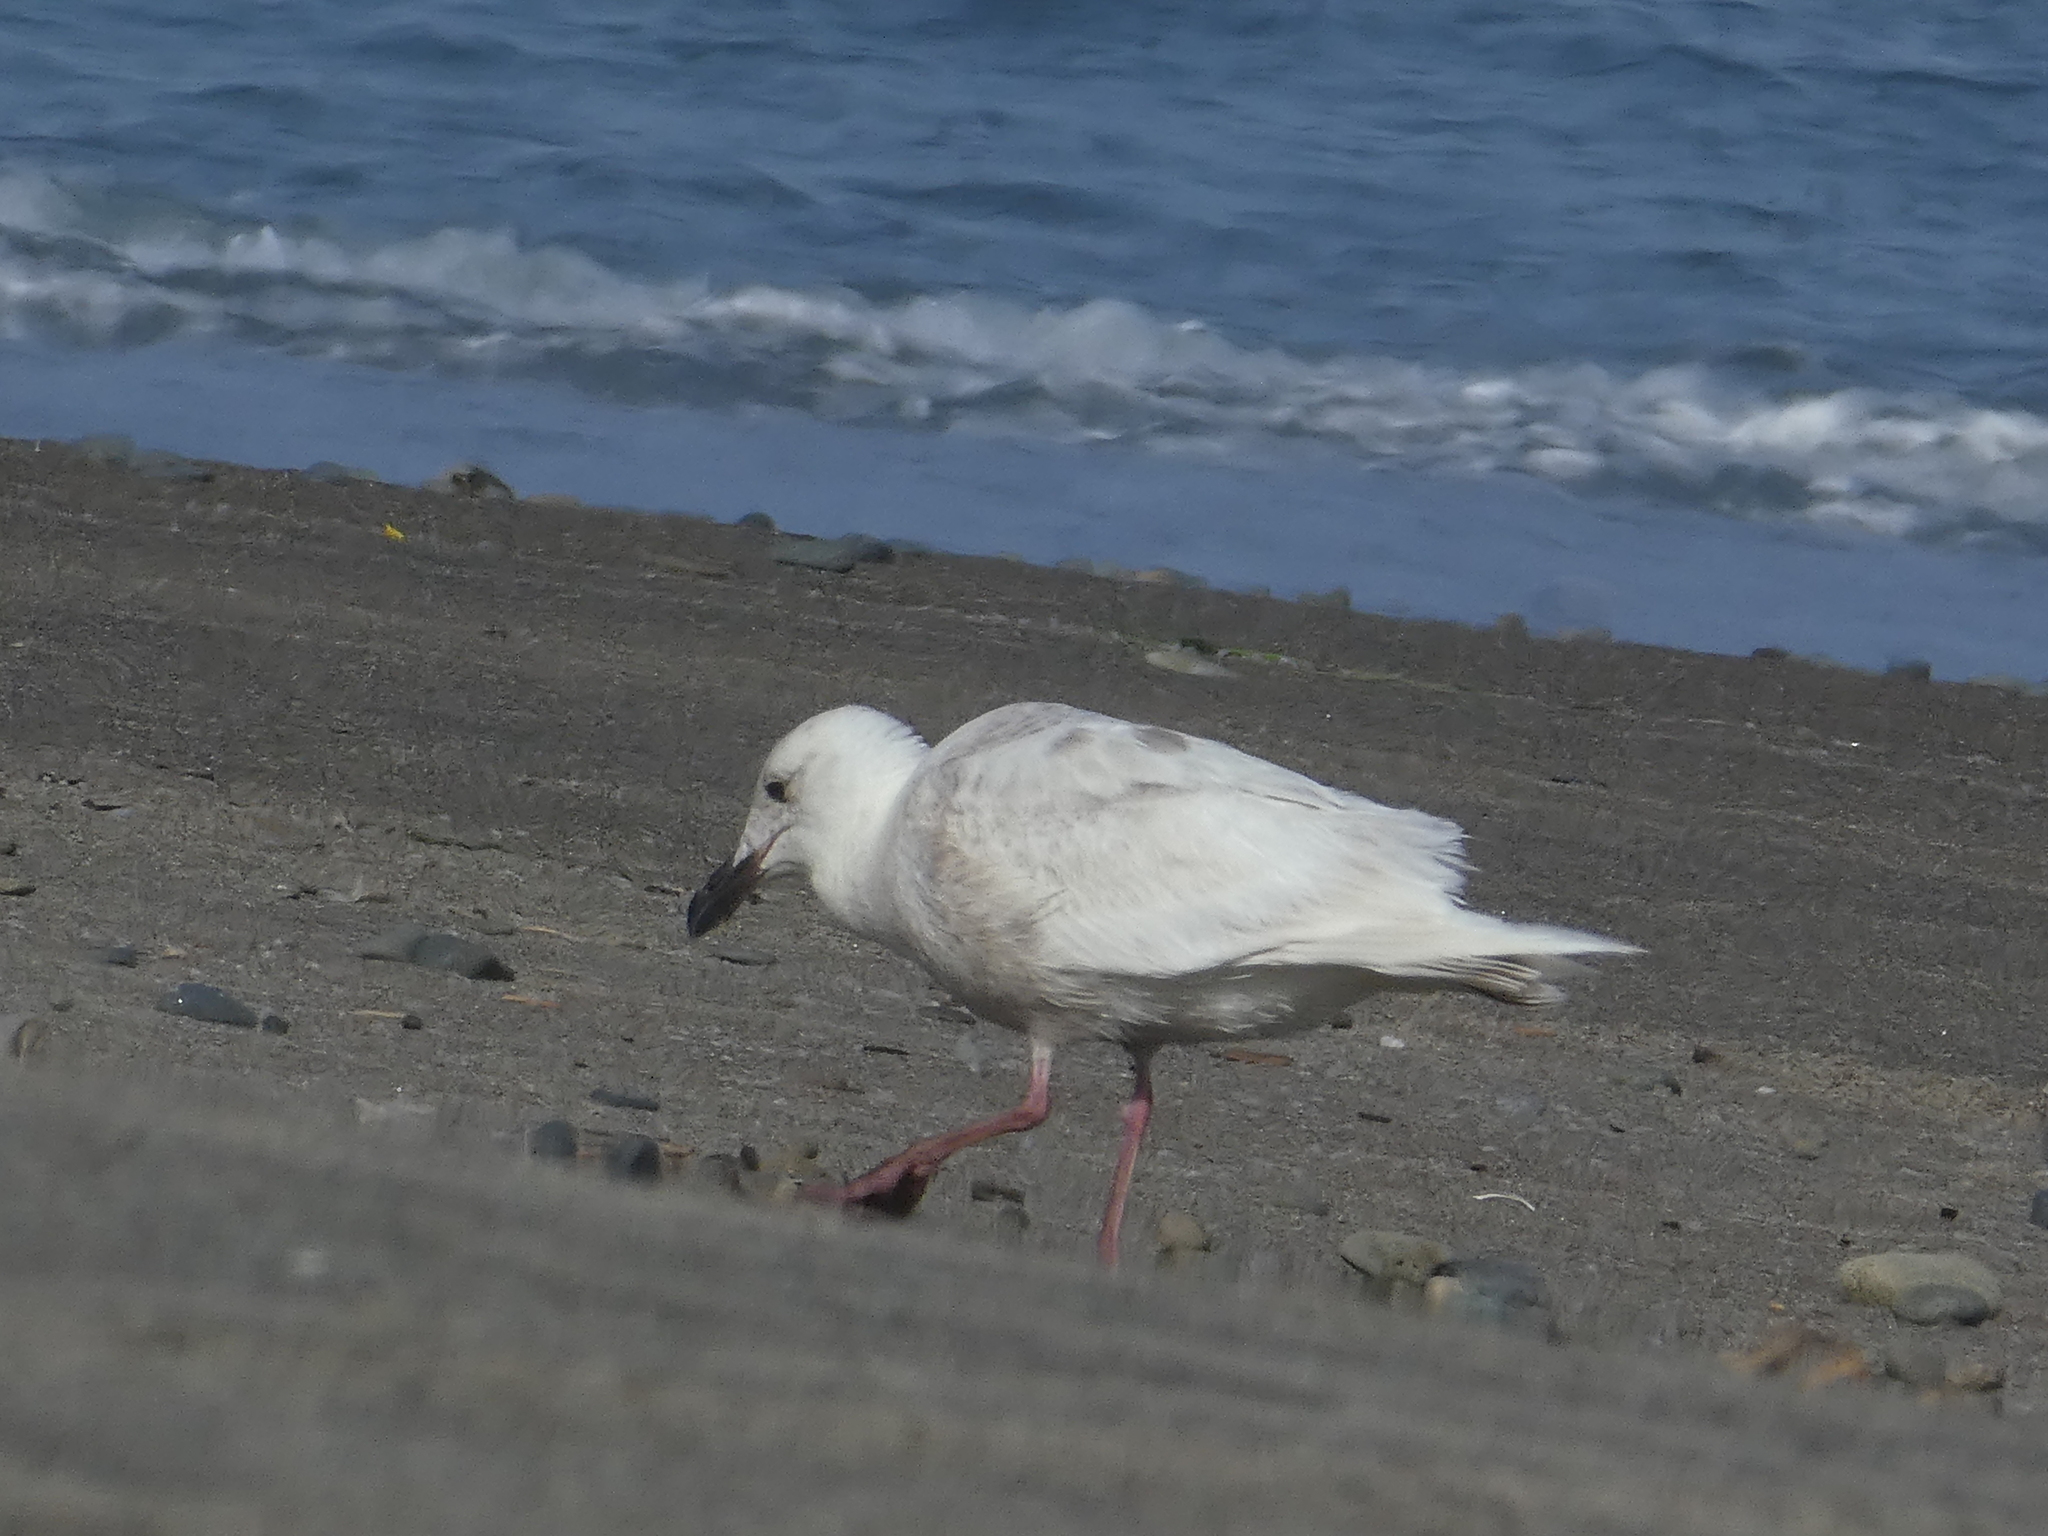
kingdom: Animalia
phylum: Chordata
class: Aves
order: Charadriiformes
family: Laridae
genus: Larus
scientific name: Larus glaucescens
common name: Glaucous-winged gull
